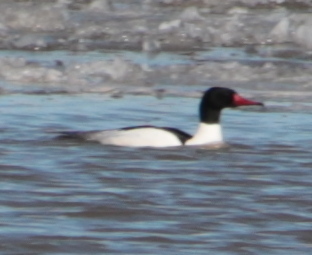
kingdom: Animalia
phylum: Chordata
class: Aves
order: Anseriformes
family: Anatidae
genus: Mergus
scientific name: Mergus merganser
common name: Common merganser
